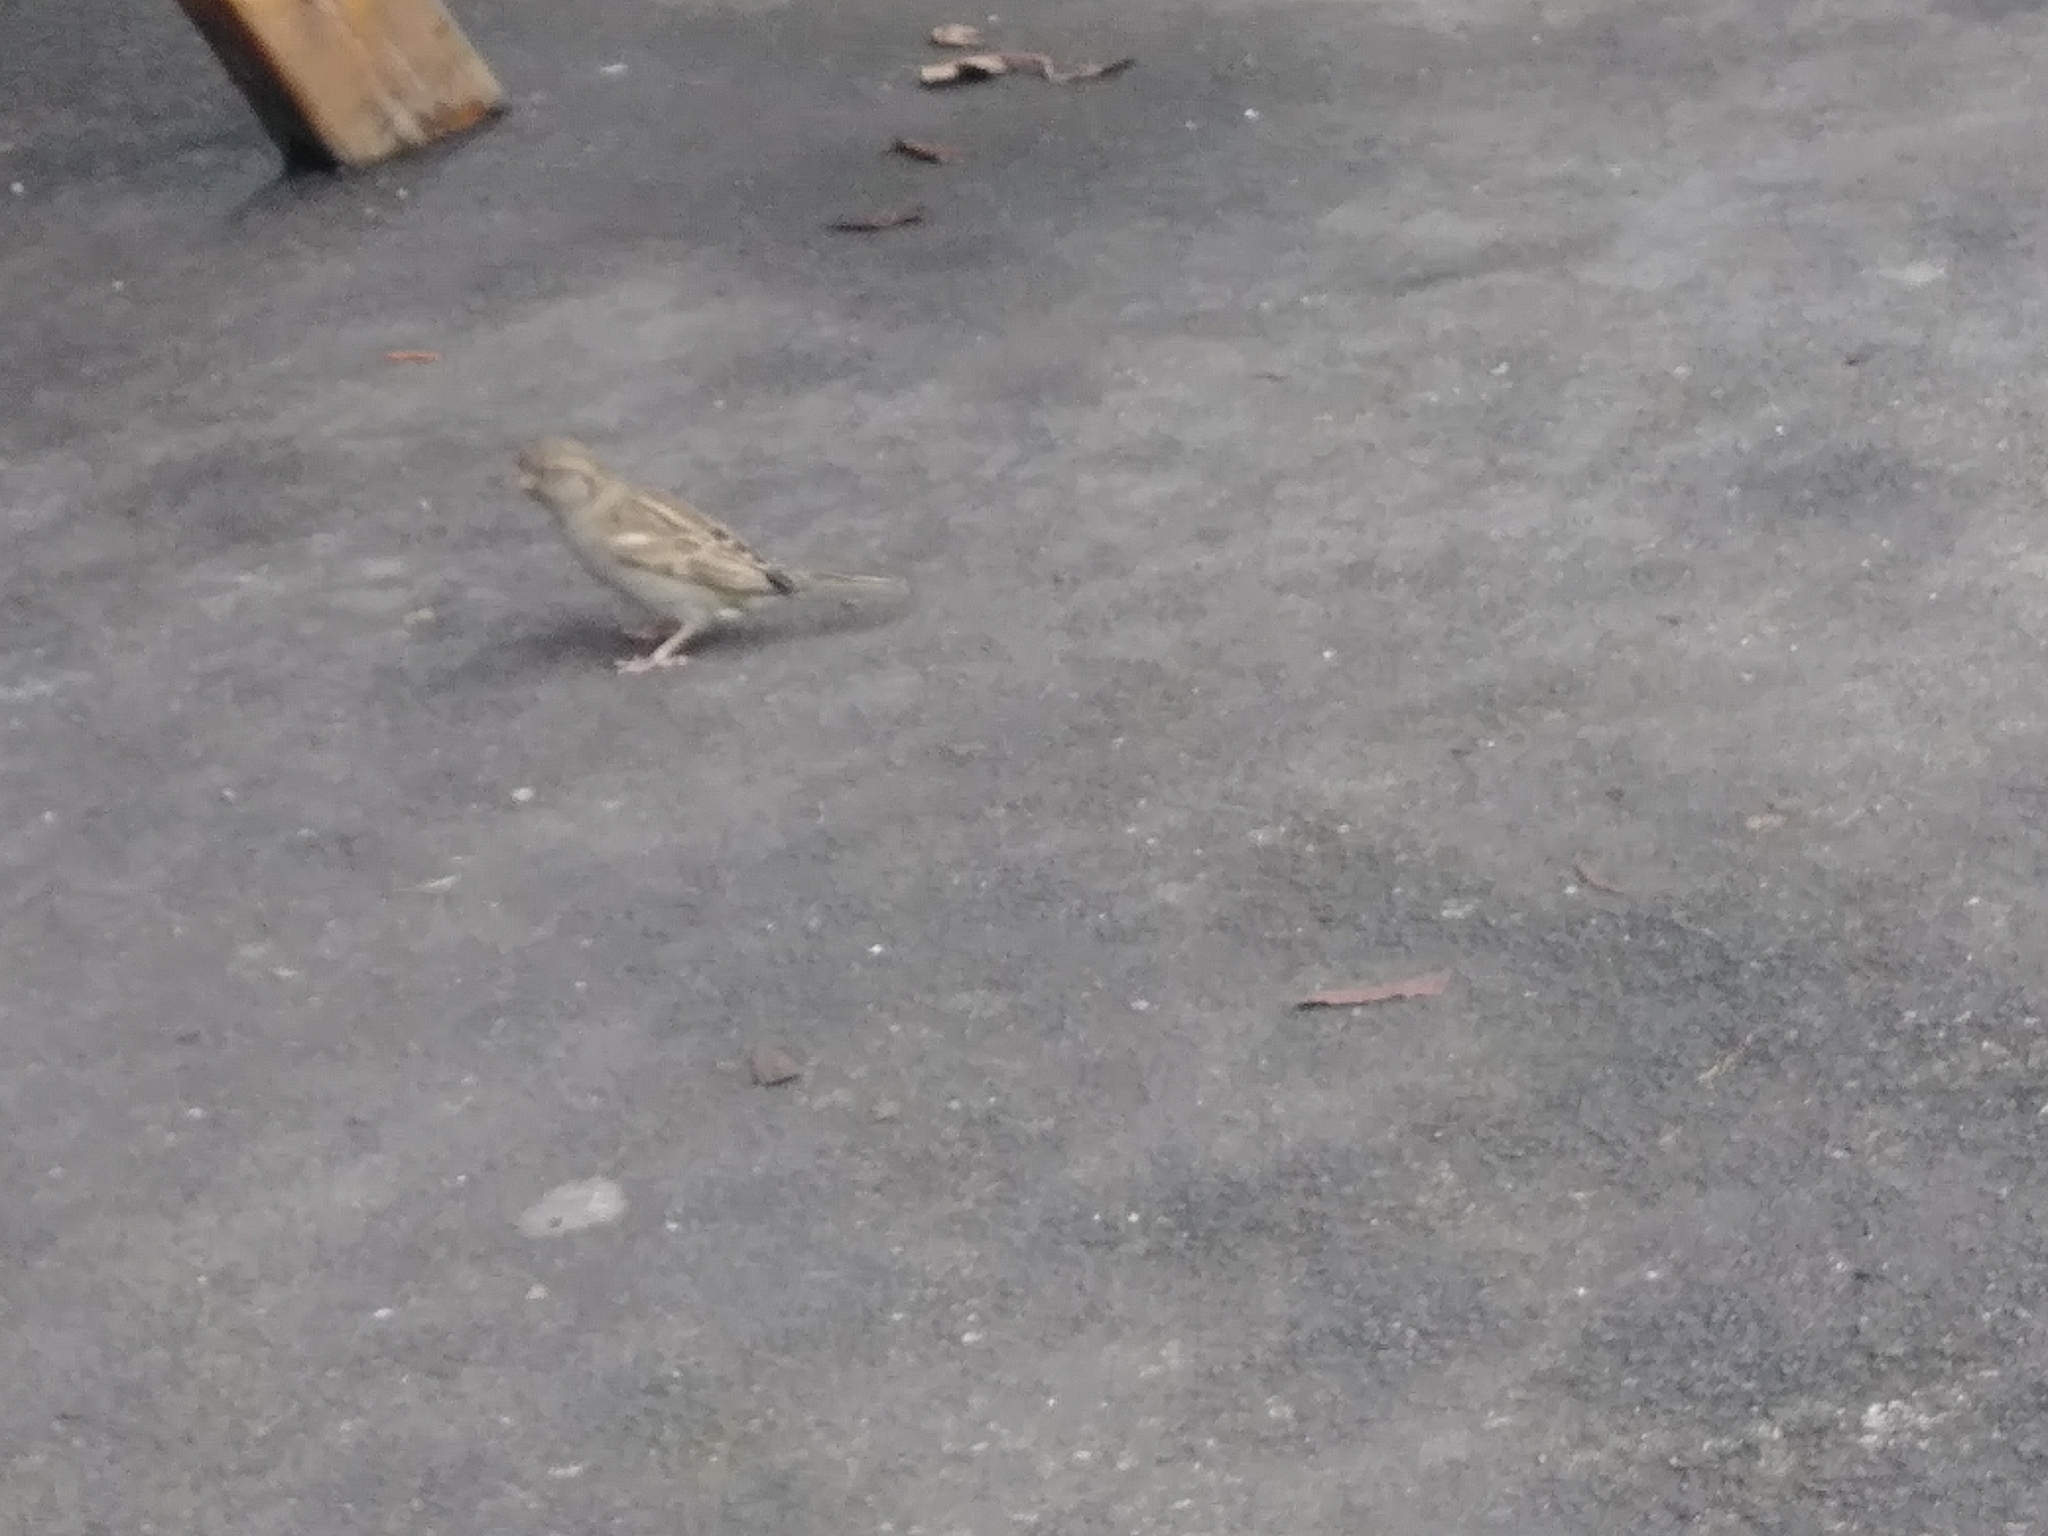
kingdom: Animalia
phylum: Chordata
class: Aves
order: Passeriformes
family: Passeridae
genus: Passer
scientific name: Passer domesticus
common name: House sparrow
